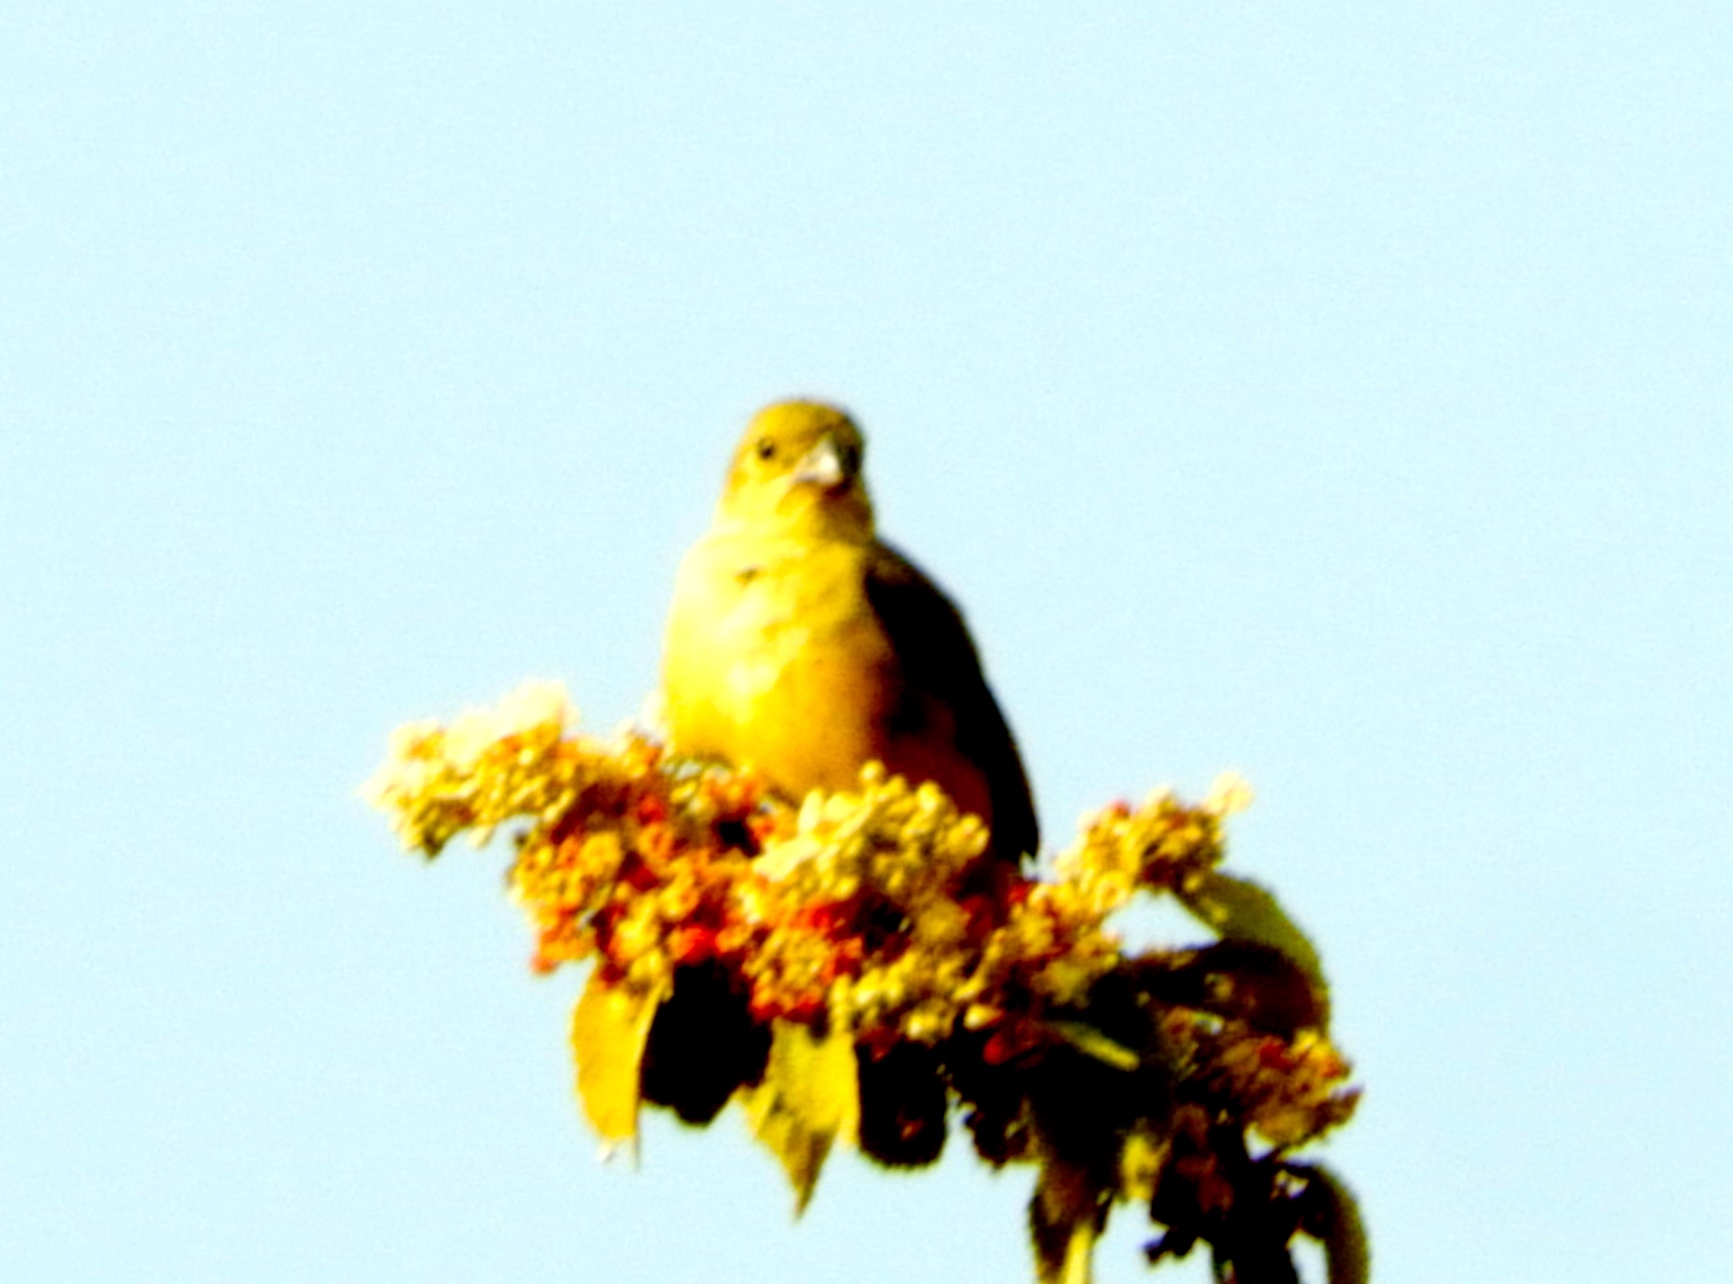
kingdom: Animalia
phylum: Chordata
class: Aves
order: Passeriformes
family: Thraupidae
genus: Sporophila
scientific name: Sporophila torqueola
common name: White-collared seedeater
